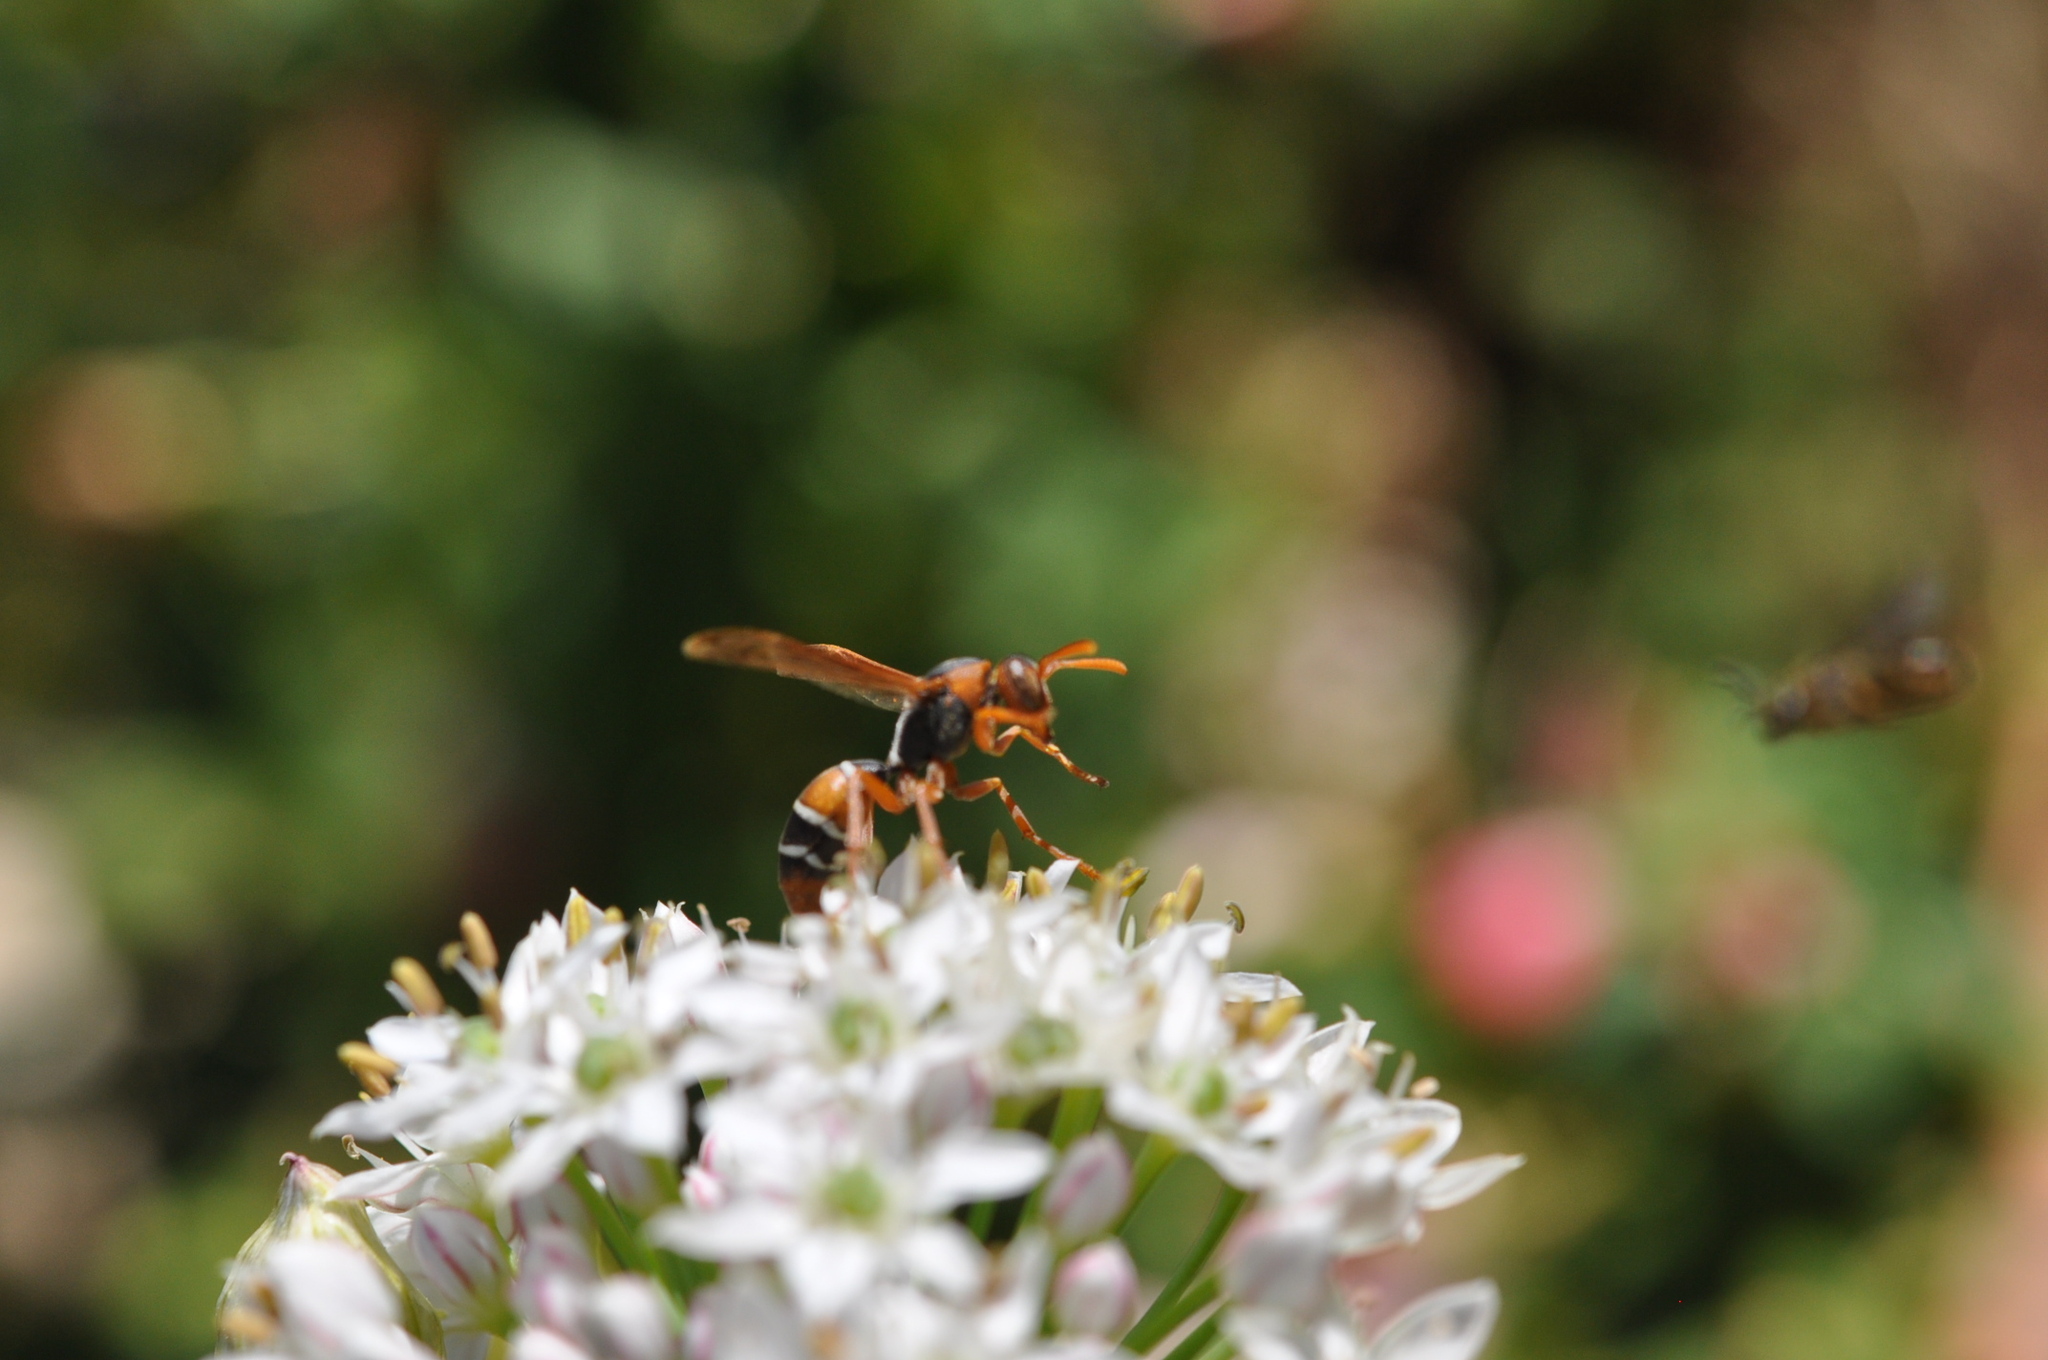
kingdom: Animalia
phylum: Arthropoda
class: Insecta
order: Hymenoptera
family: Eumenidae
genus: Polistes
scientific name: Polistes marginalis
